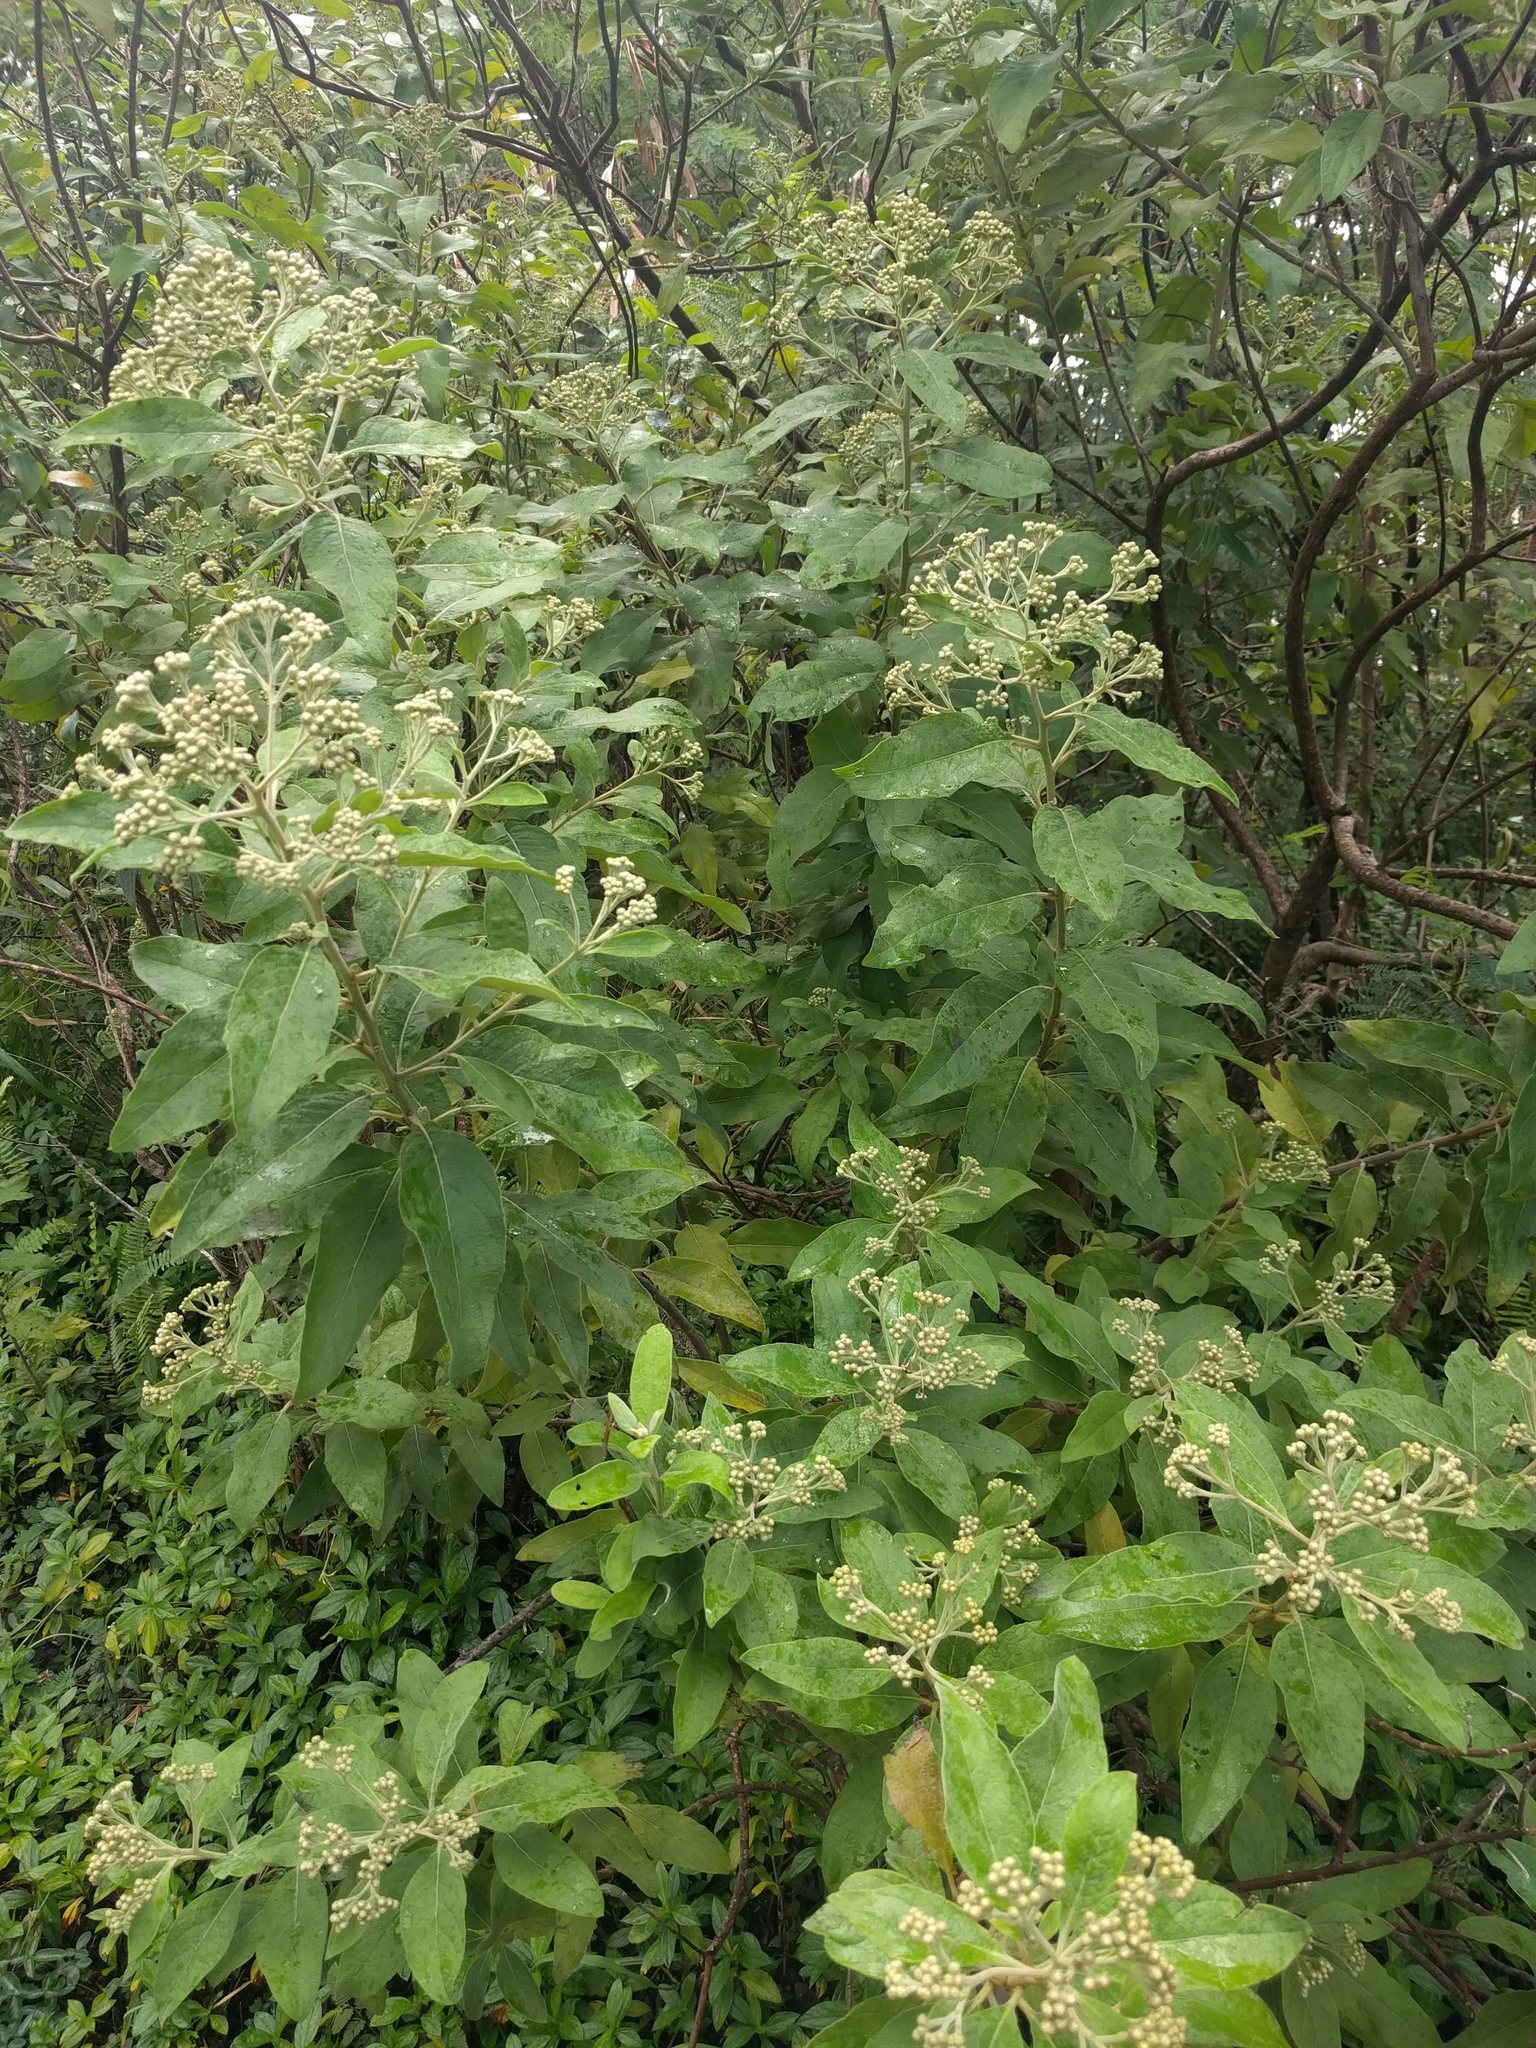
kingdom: Plantae
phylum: Tracheophyta
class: Magnoliopsida
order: Asterales
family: Asteraceae
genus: Pluchea
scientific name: Pluchea carolinensis
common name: Marsh fleabane
